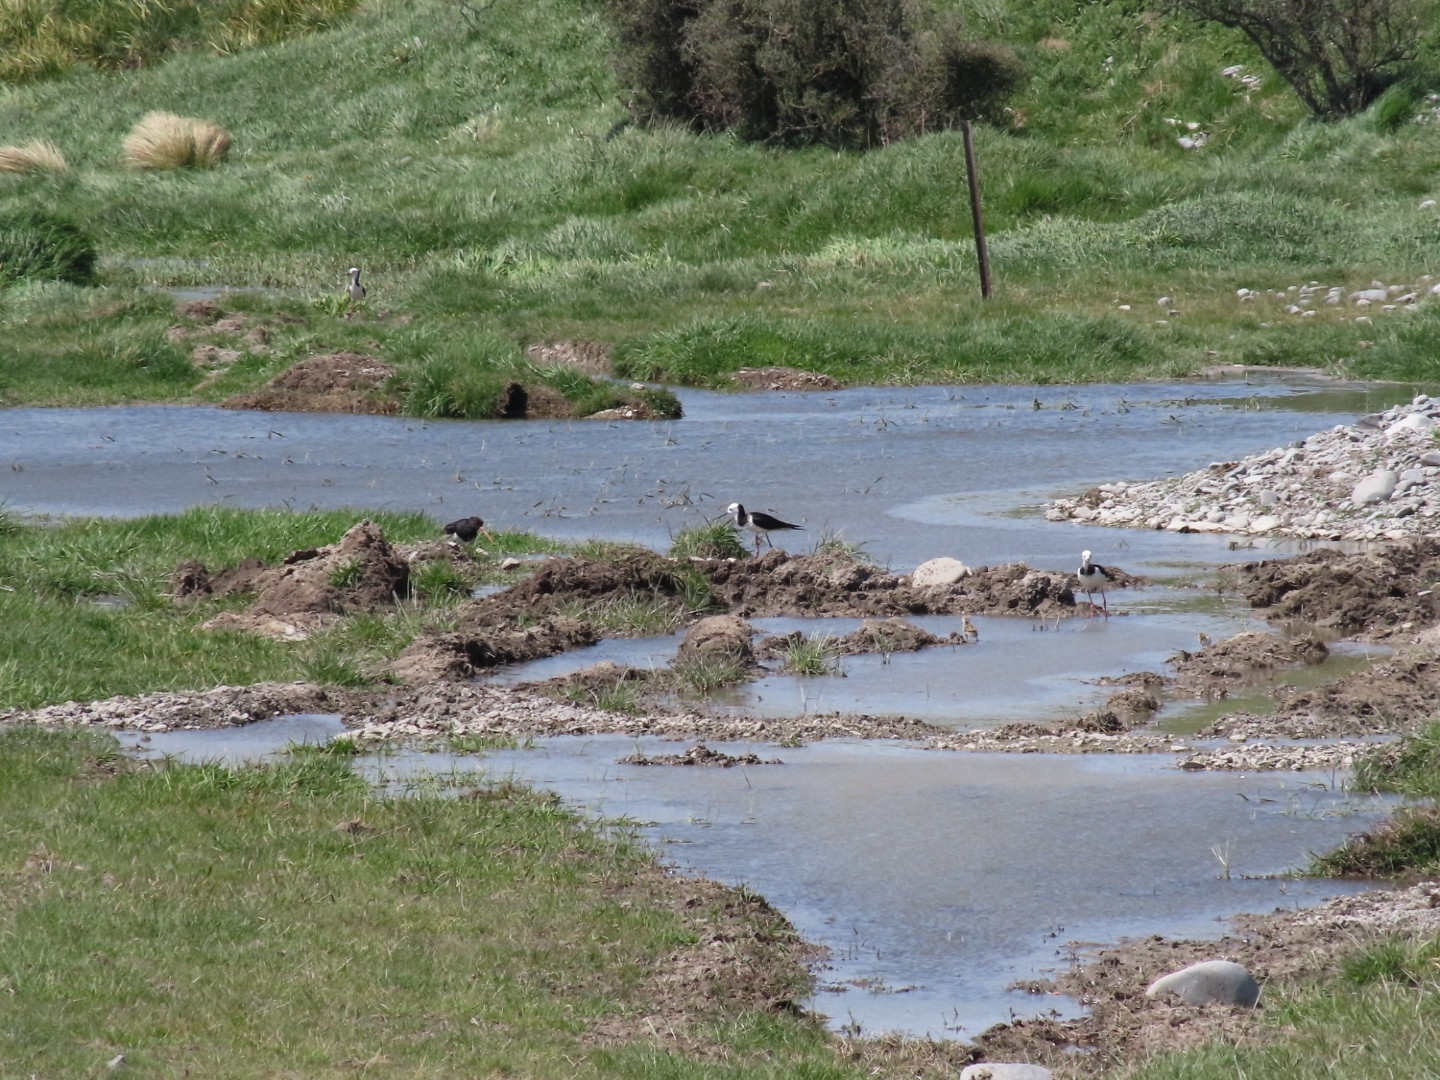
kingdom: Animalia
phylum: Chordata
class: Aves
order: Charadriiformes
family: Recurvirostridae
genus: Himantopus
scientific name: Himantopus
